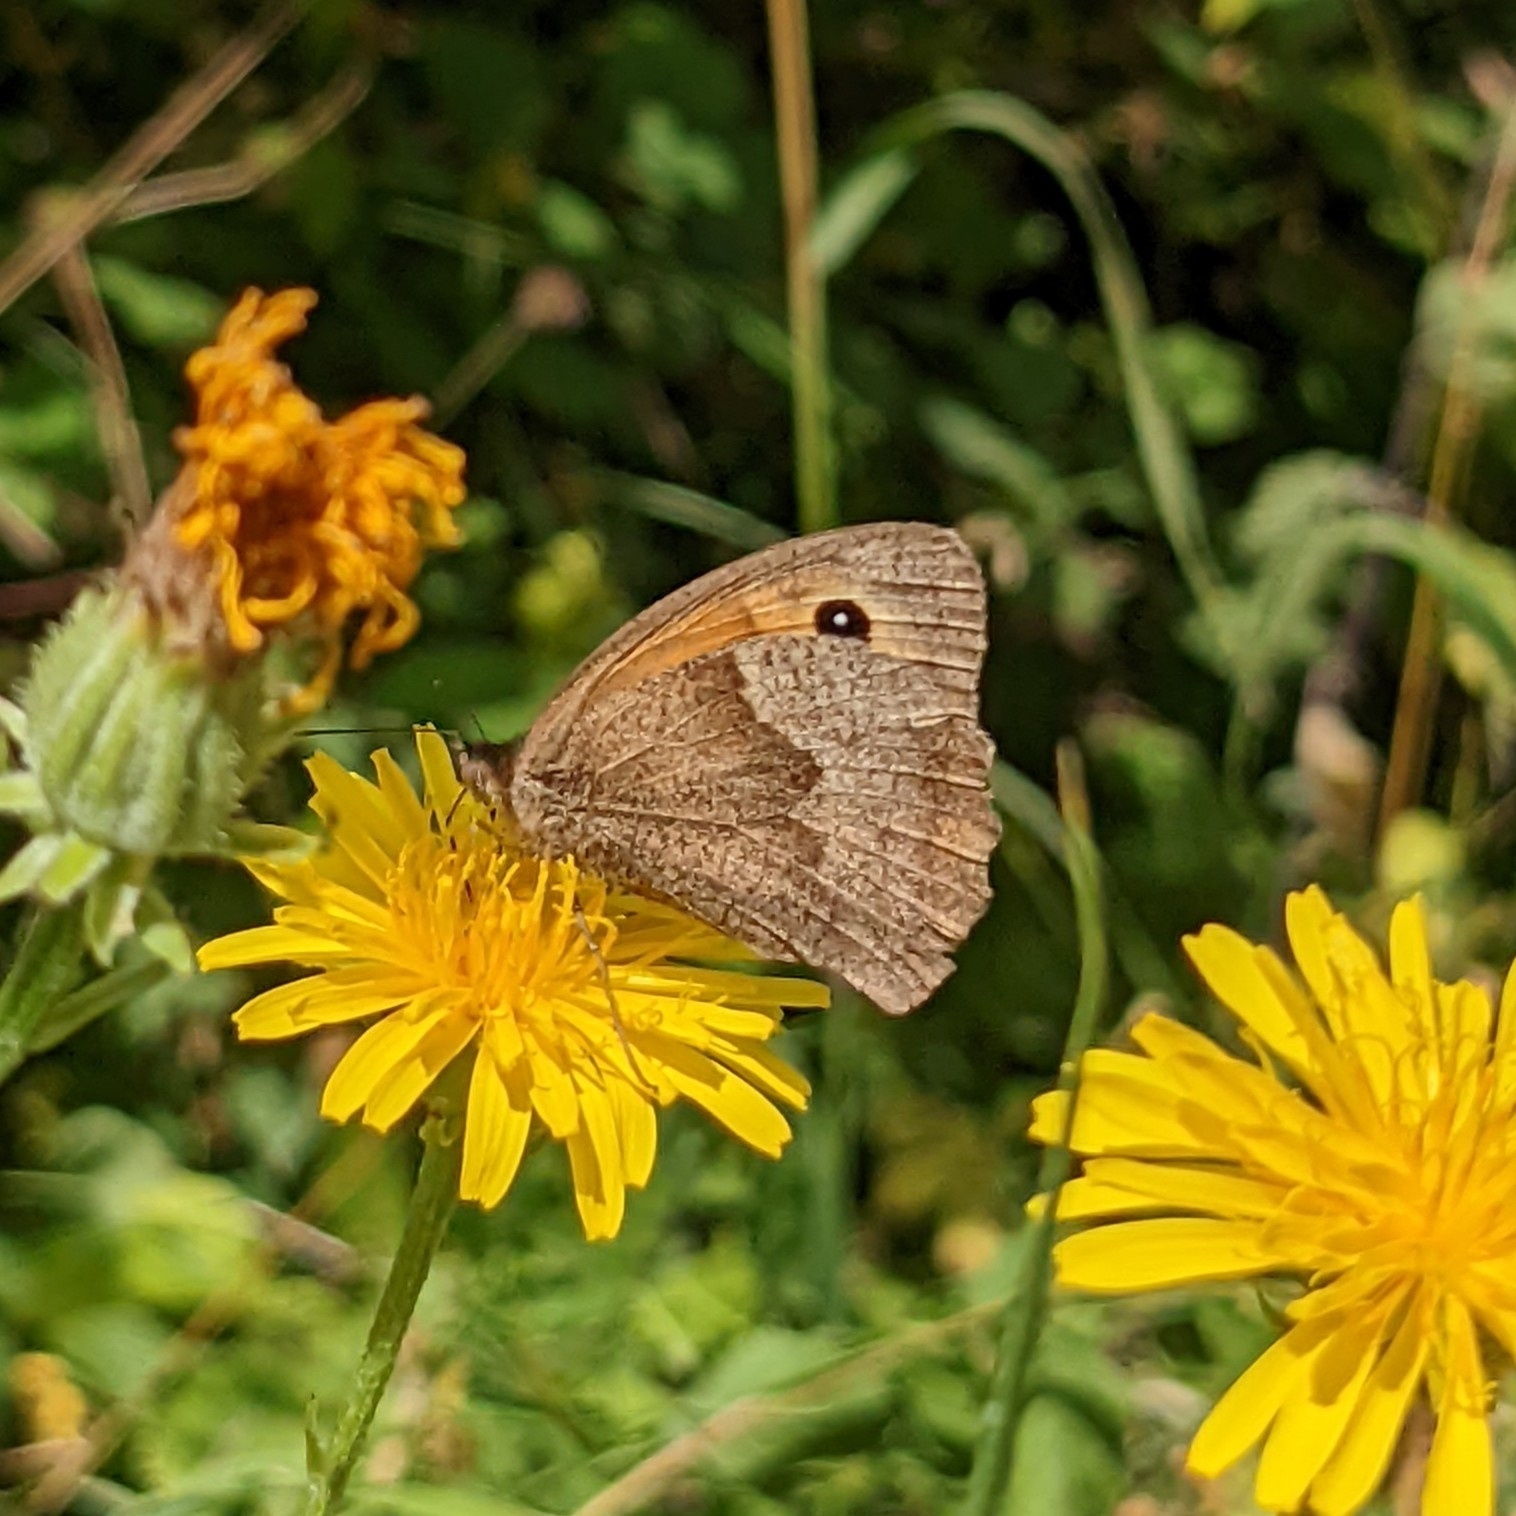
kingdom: Animalia
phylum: Arthropoda
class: Insecta
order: Lepidoptera
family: Nymphalidae
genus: Maniola
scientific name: Maniola jurtina
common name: Meadow brown
